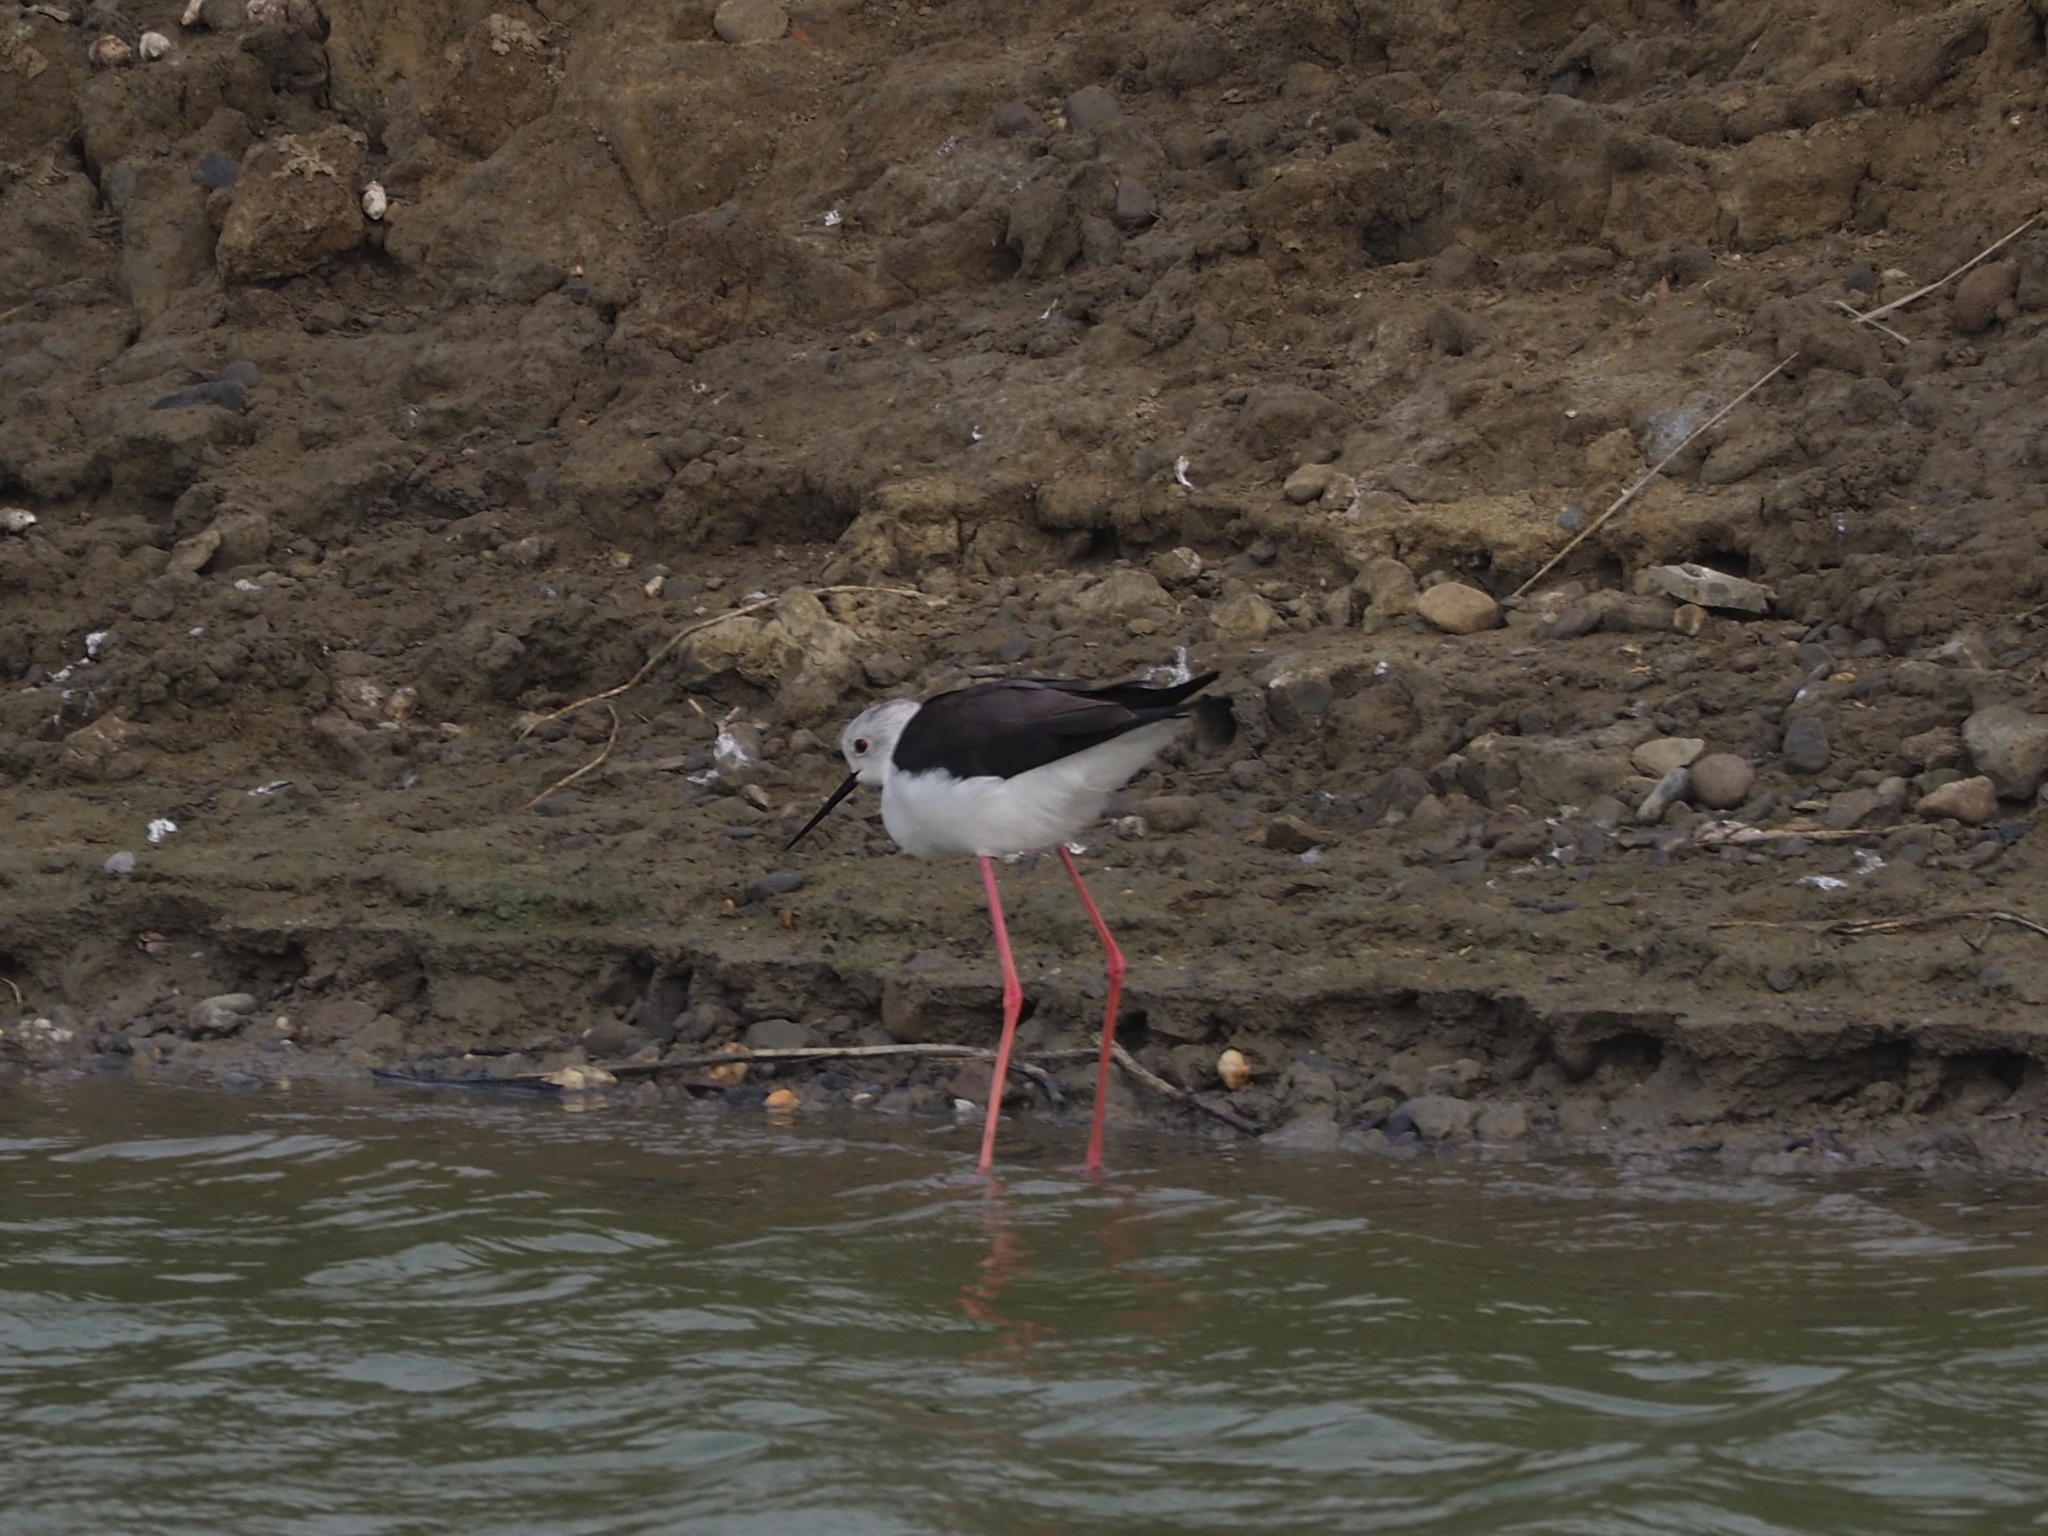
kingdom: Animalia
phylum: Chordata
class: Aves
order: Charadriiformes
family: Recurvirostridae
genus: Himantopus
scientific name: Himantopus himantopus
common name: Black-winged stilt
